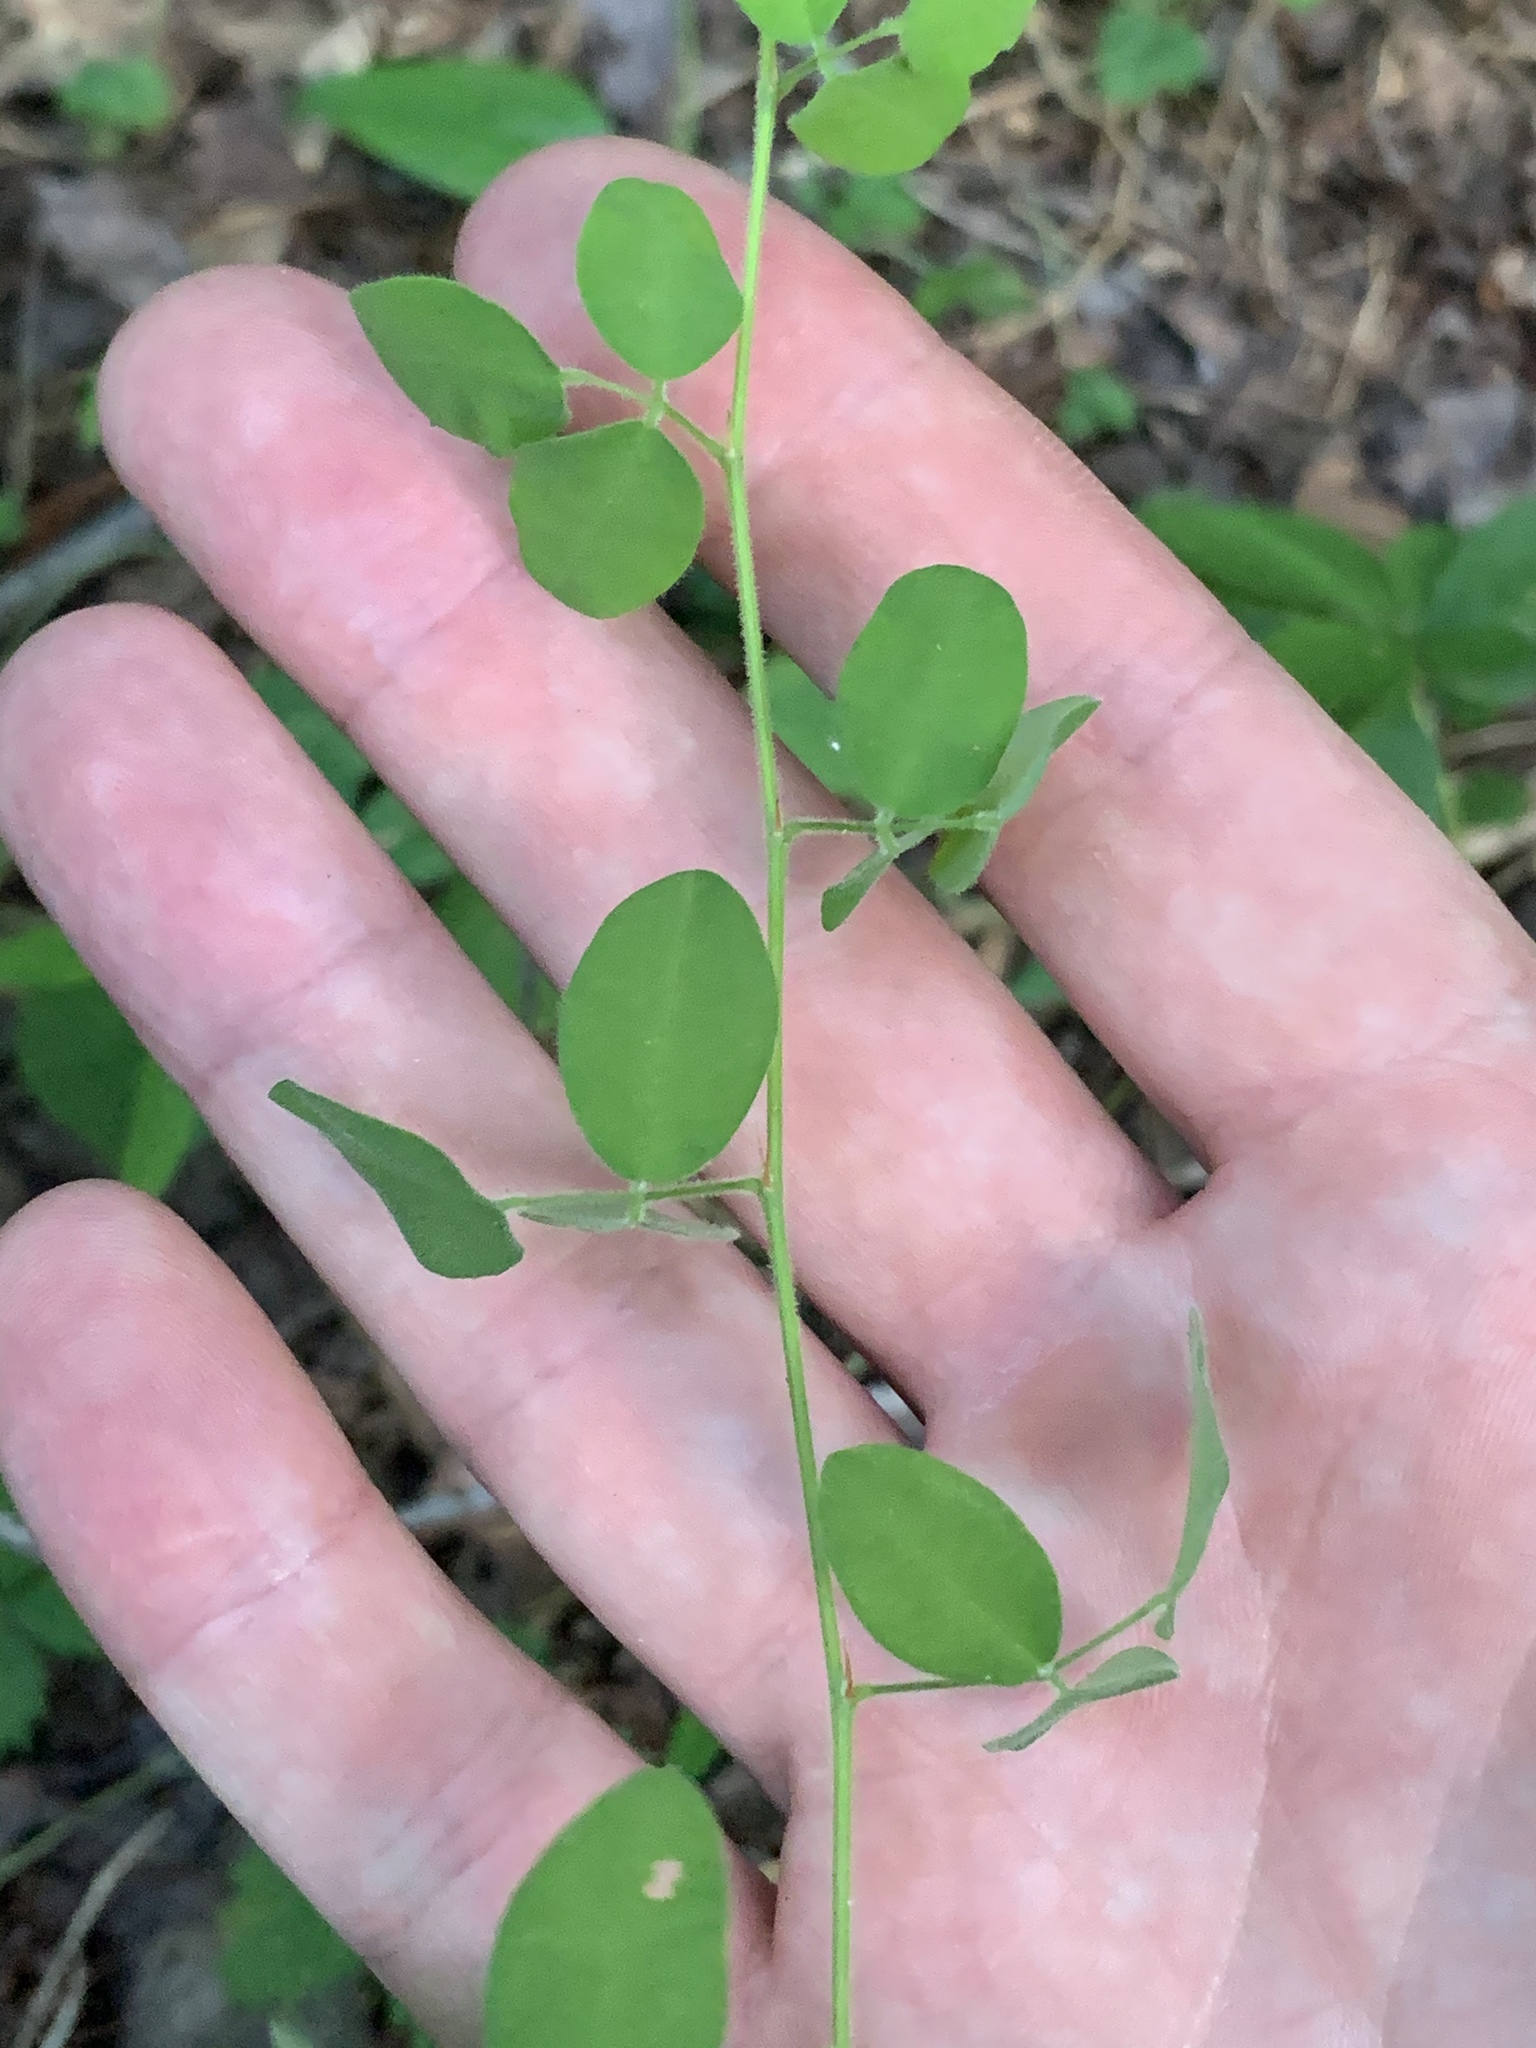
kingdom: Plantae
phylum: Tracheophyta
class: Magnoliopsida
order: Fabales
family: Fabaceae
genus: Lespedeza
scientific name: Lespedeza procumbens
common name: Downy trailing bush-clover
